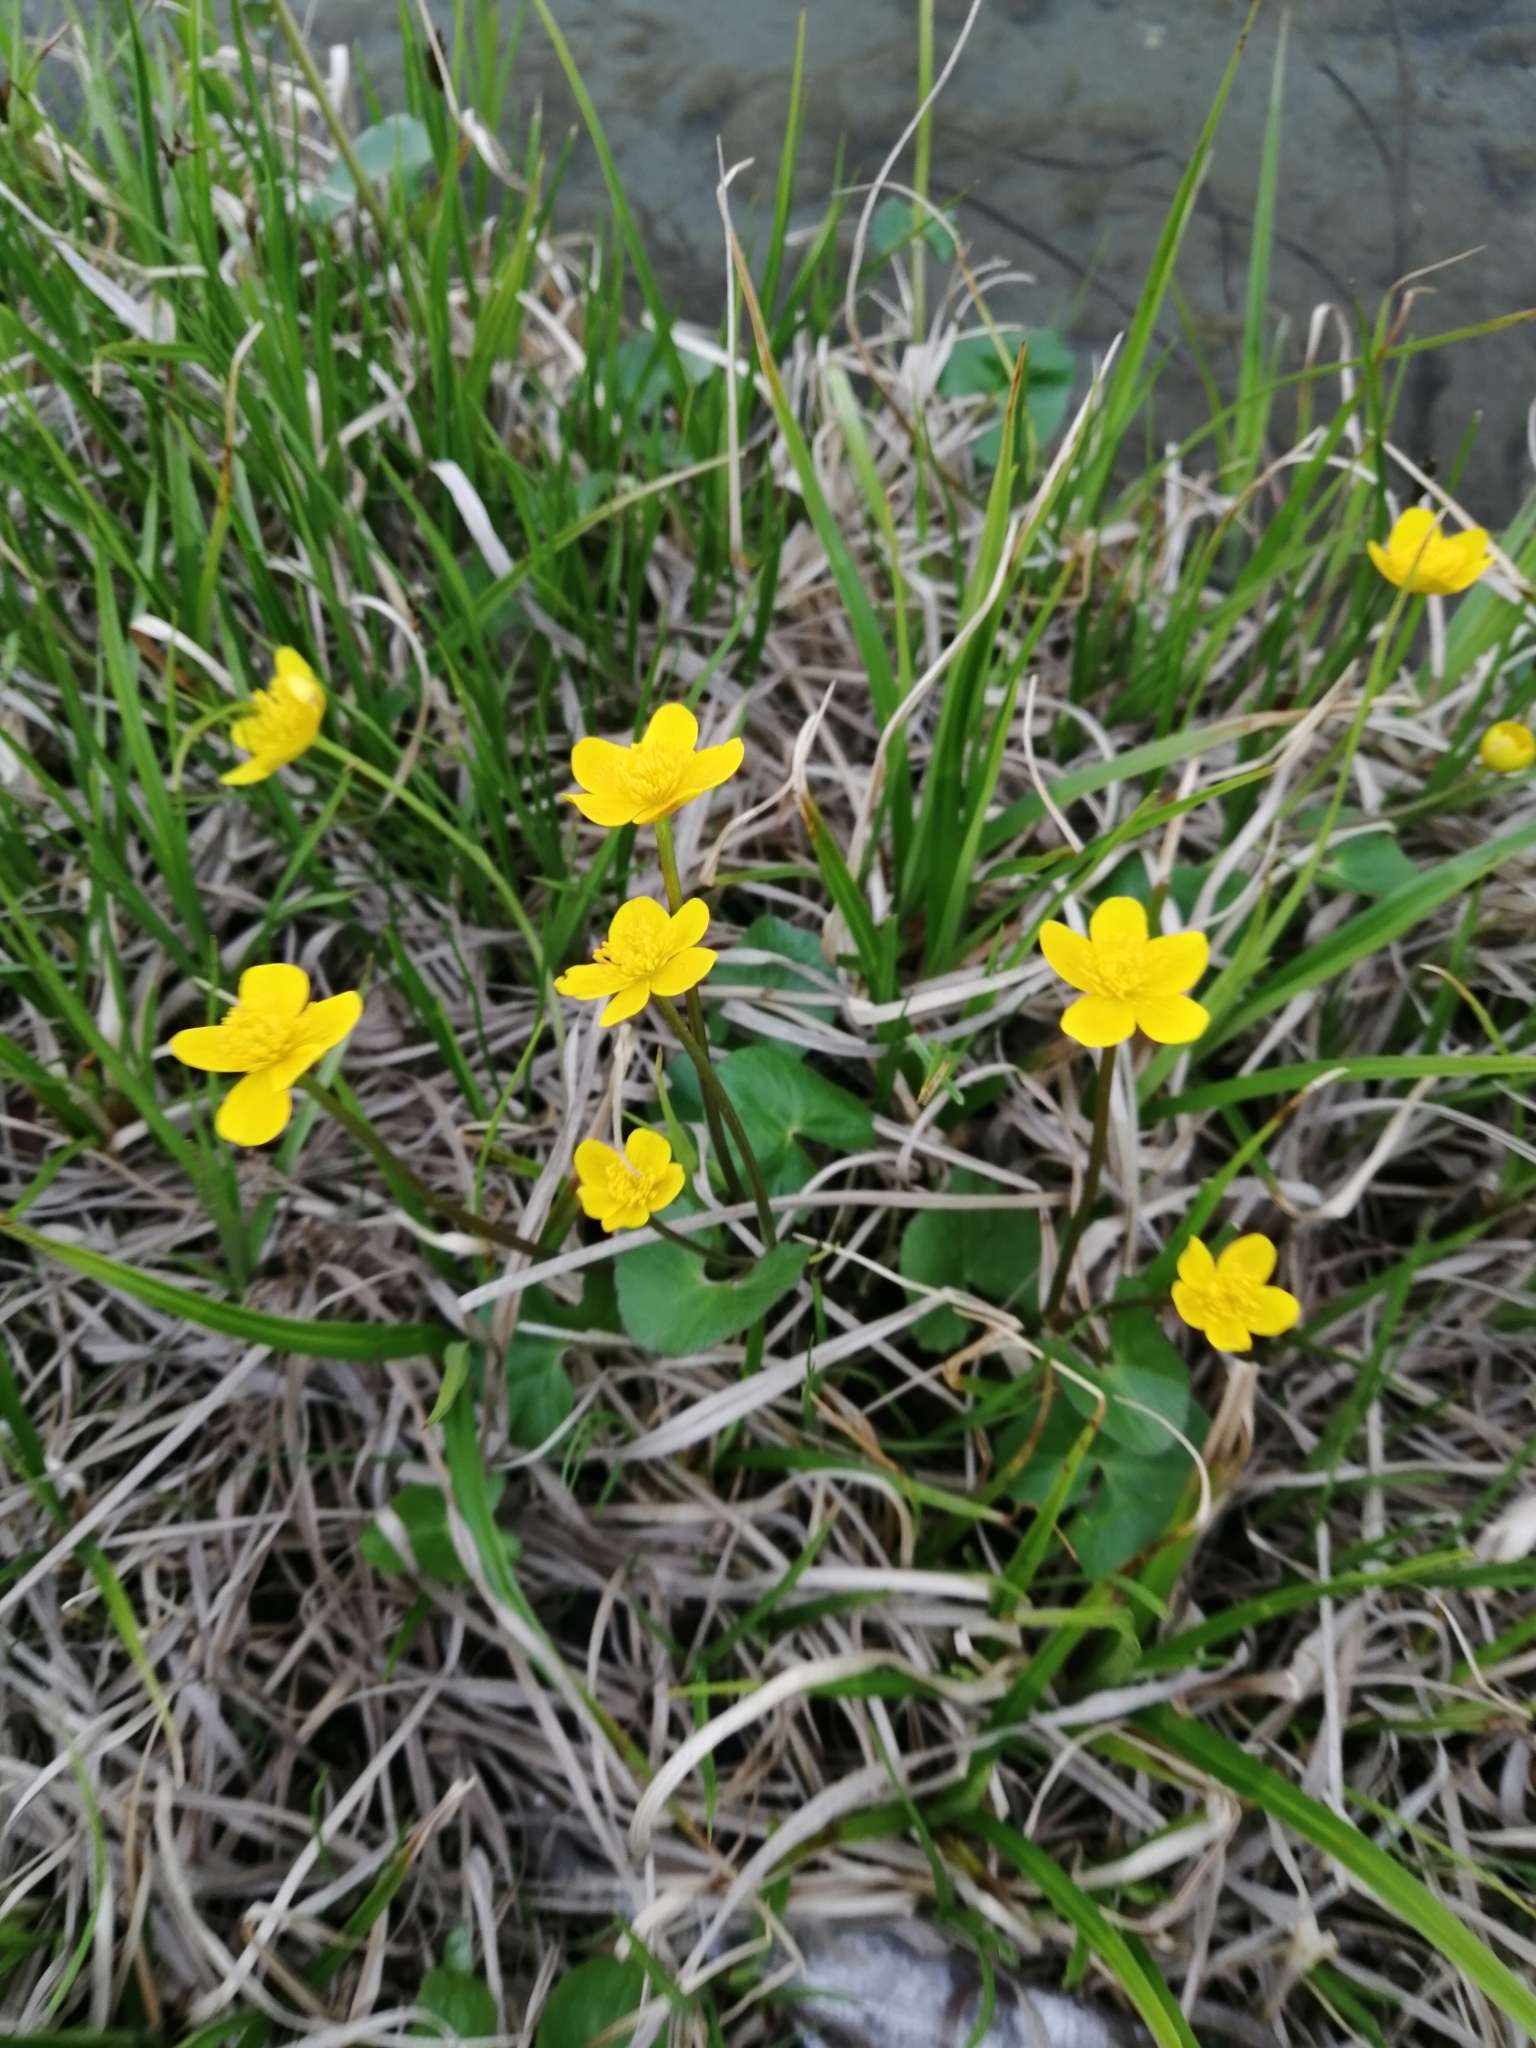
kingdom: Plantae
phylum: Tracheophyta
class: Magnoliopsida
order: Ranunculales
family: Ranunculaceae
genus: Caltha
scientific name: Caltha palustris
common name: Marsh marigold
